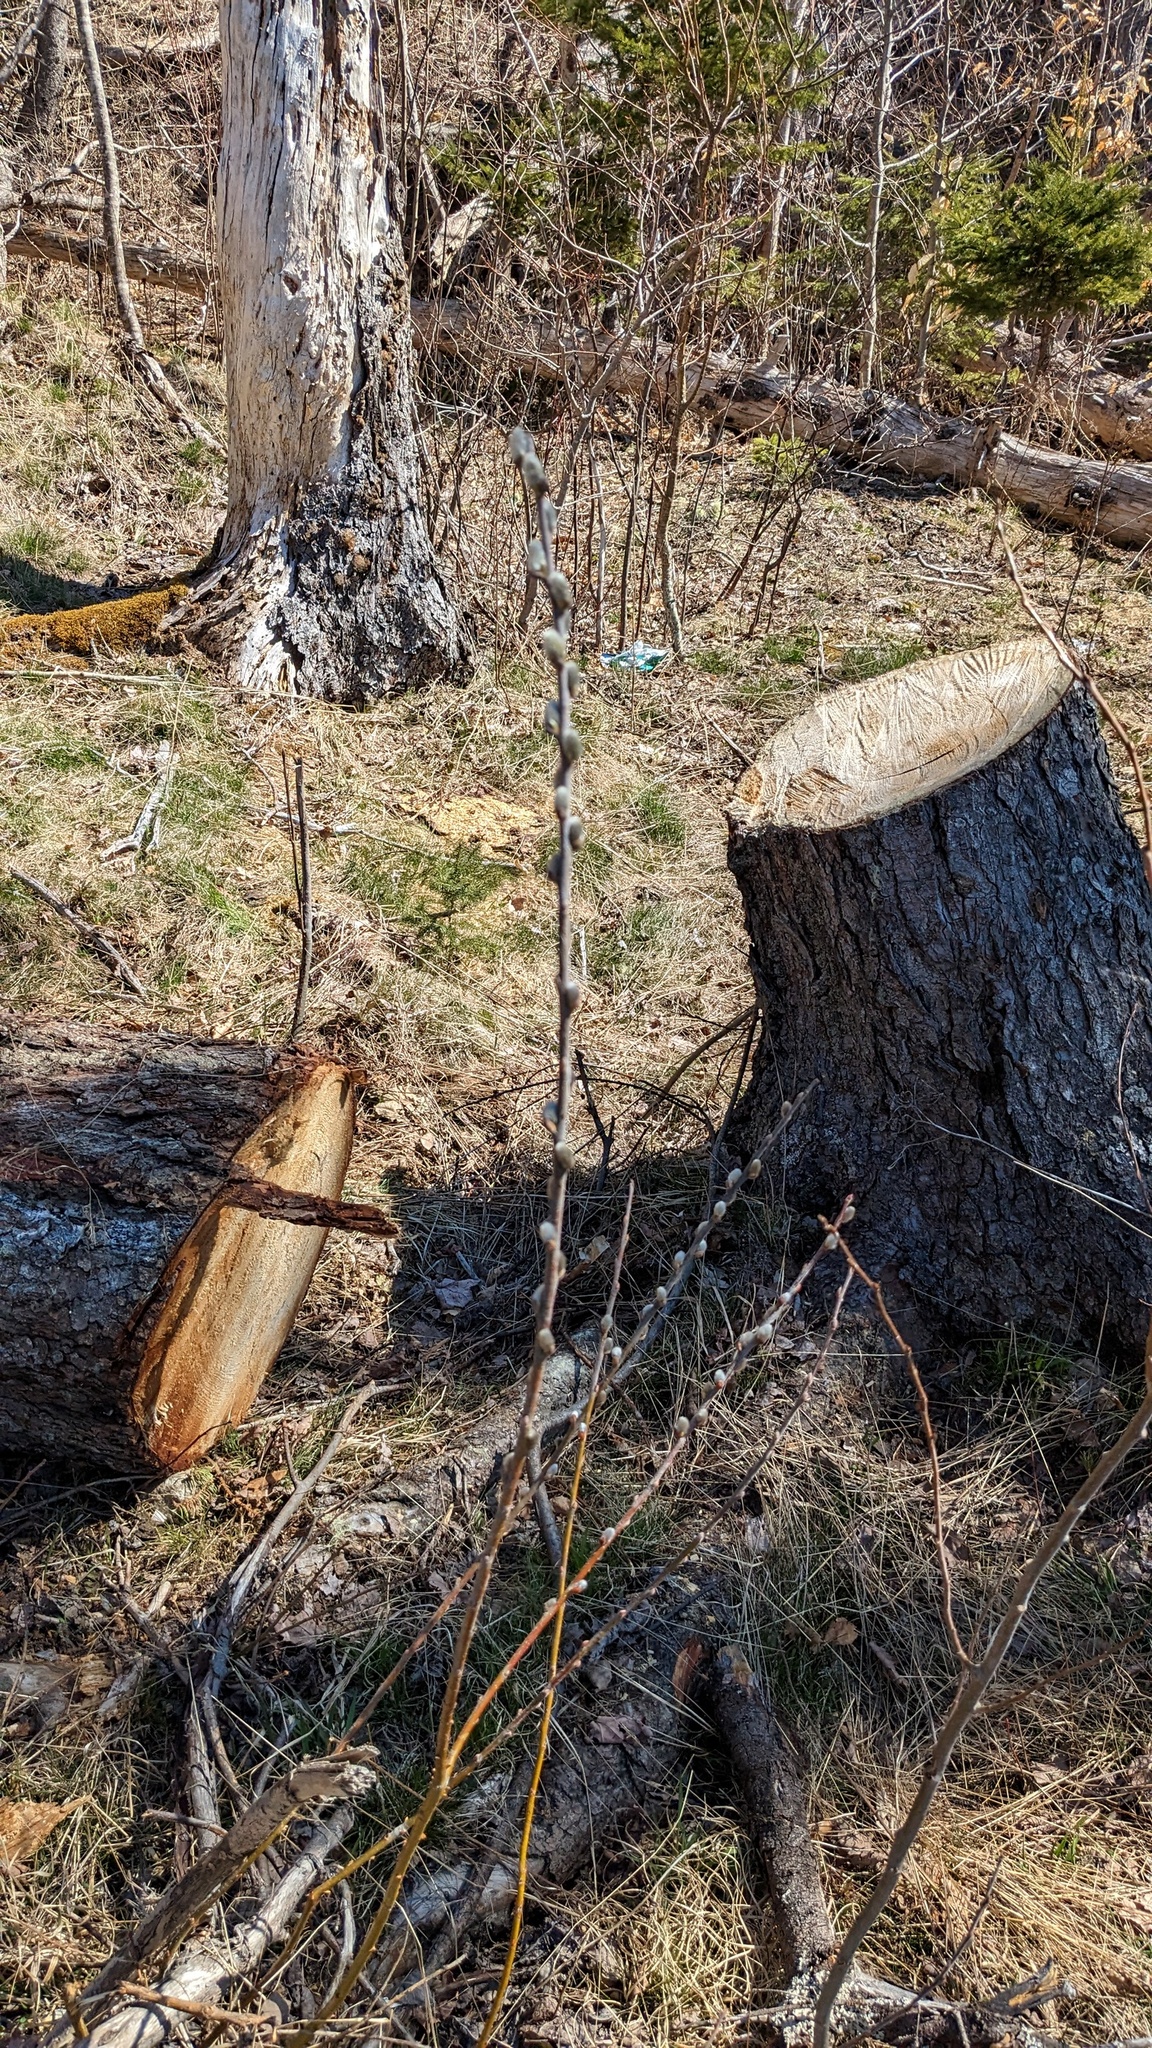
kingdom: Plantae
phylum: Tracheophyta
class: Magnoliopsida
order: Malpighiales
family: Salicaceae
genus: Salix
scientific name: Salix discolor
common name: Glaucous willow
